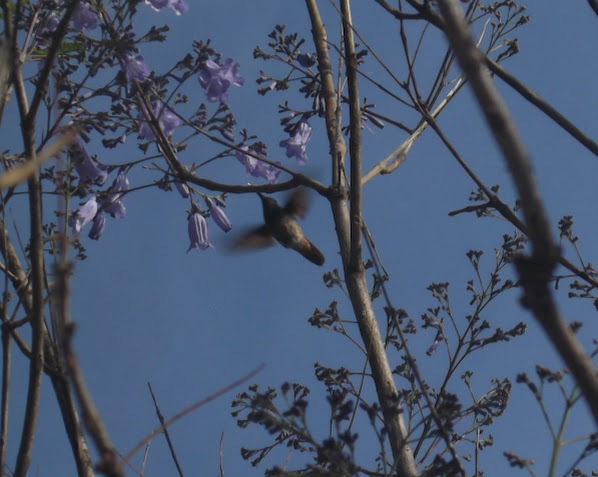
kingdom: Animalia
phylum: Chordata
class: Aves
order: Apodiformes
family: Trochilidae
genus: Saucerottia
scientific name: Saucerottia beryllina
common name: Berylline hummingbird
